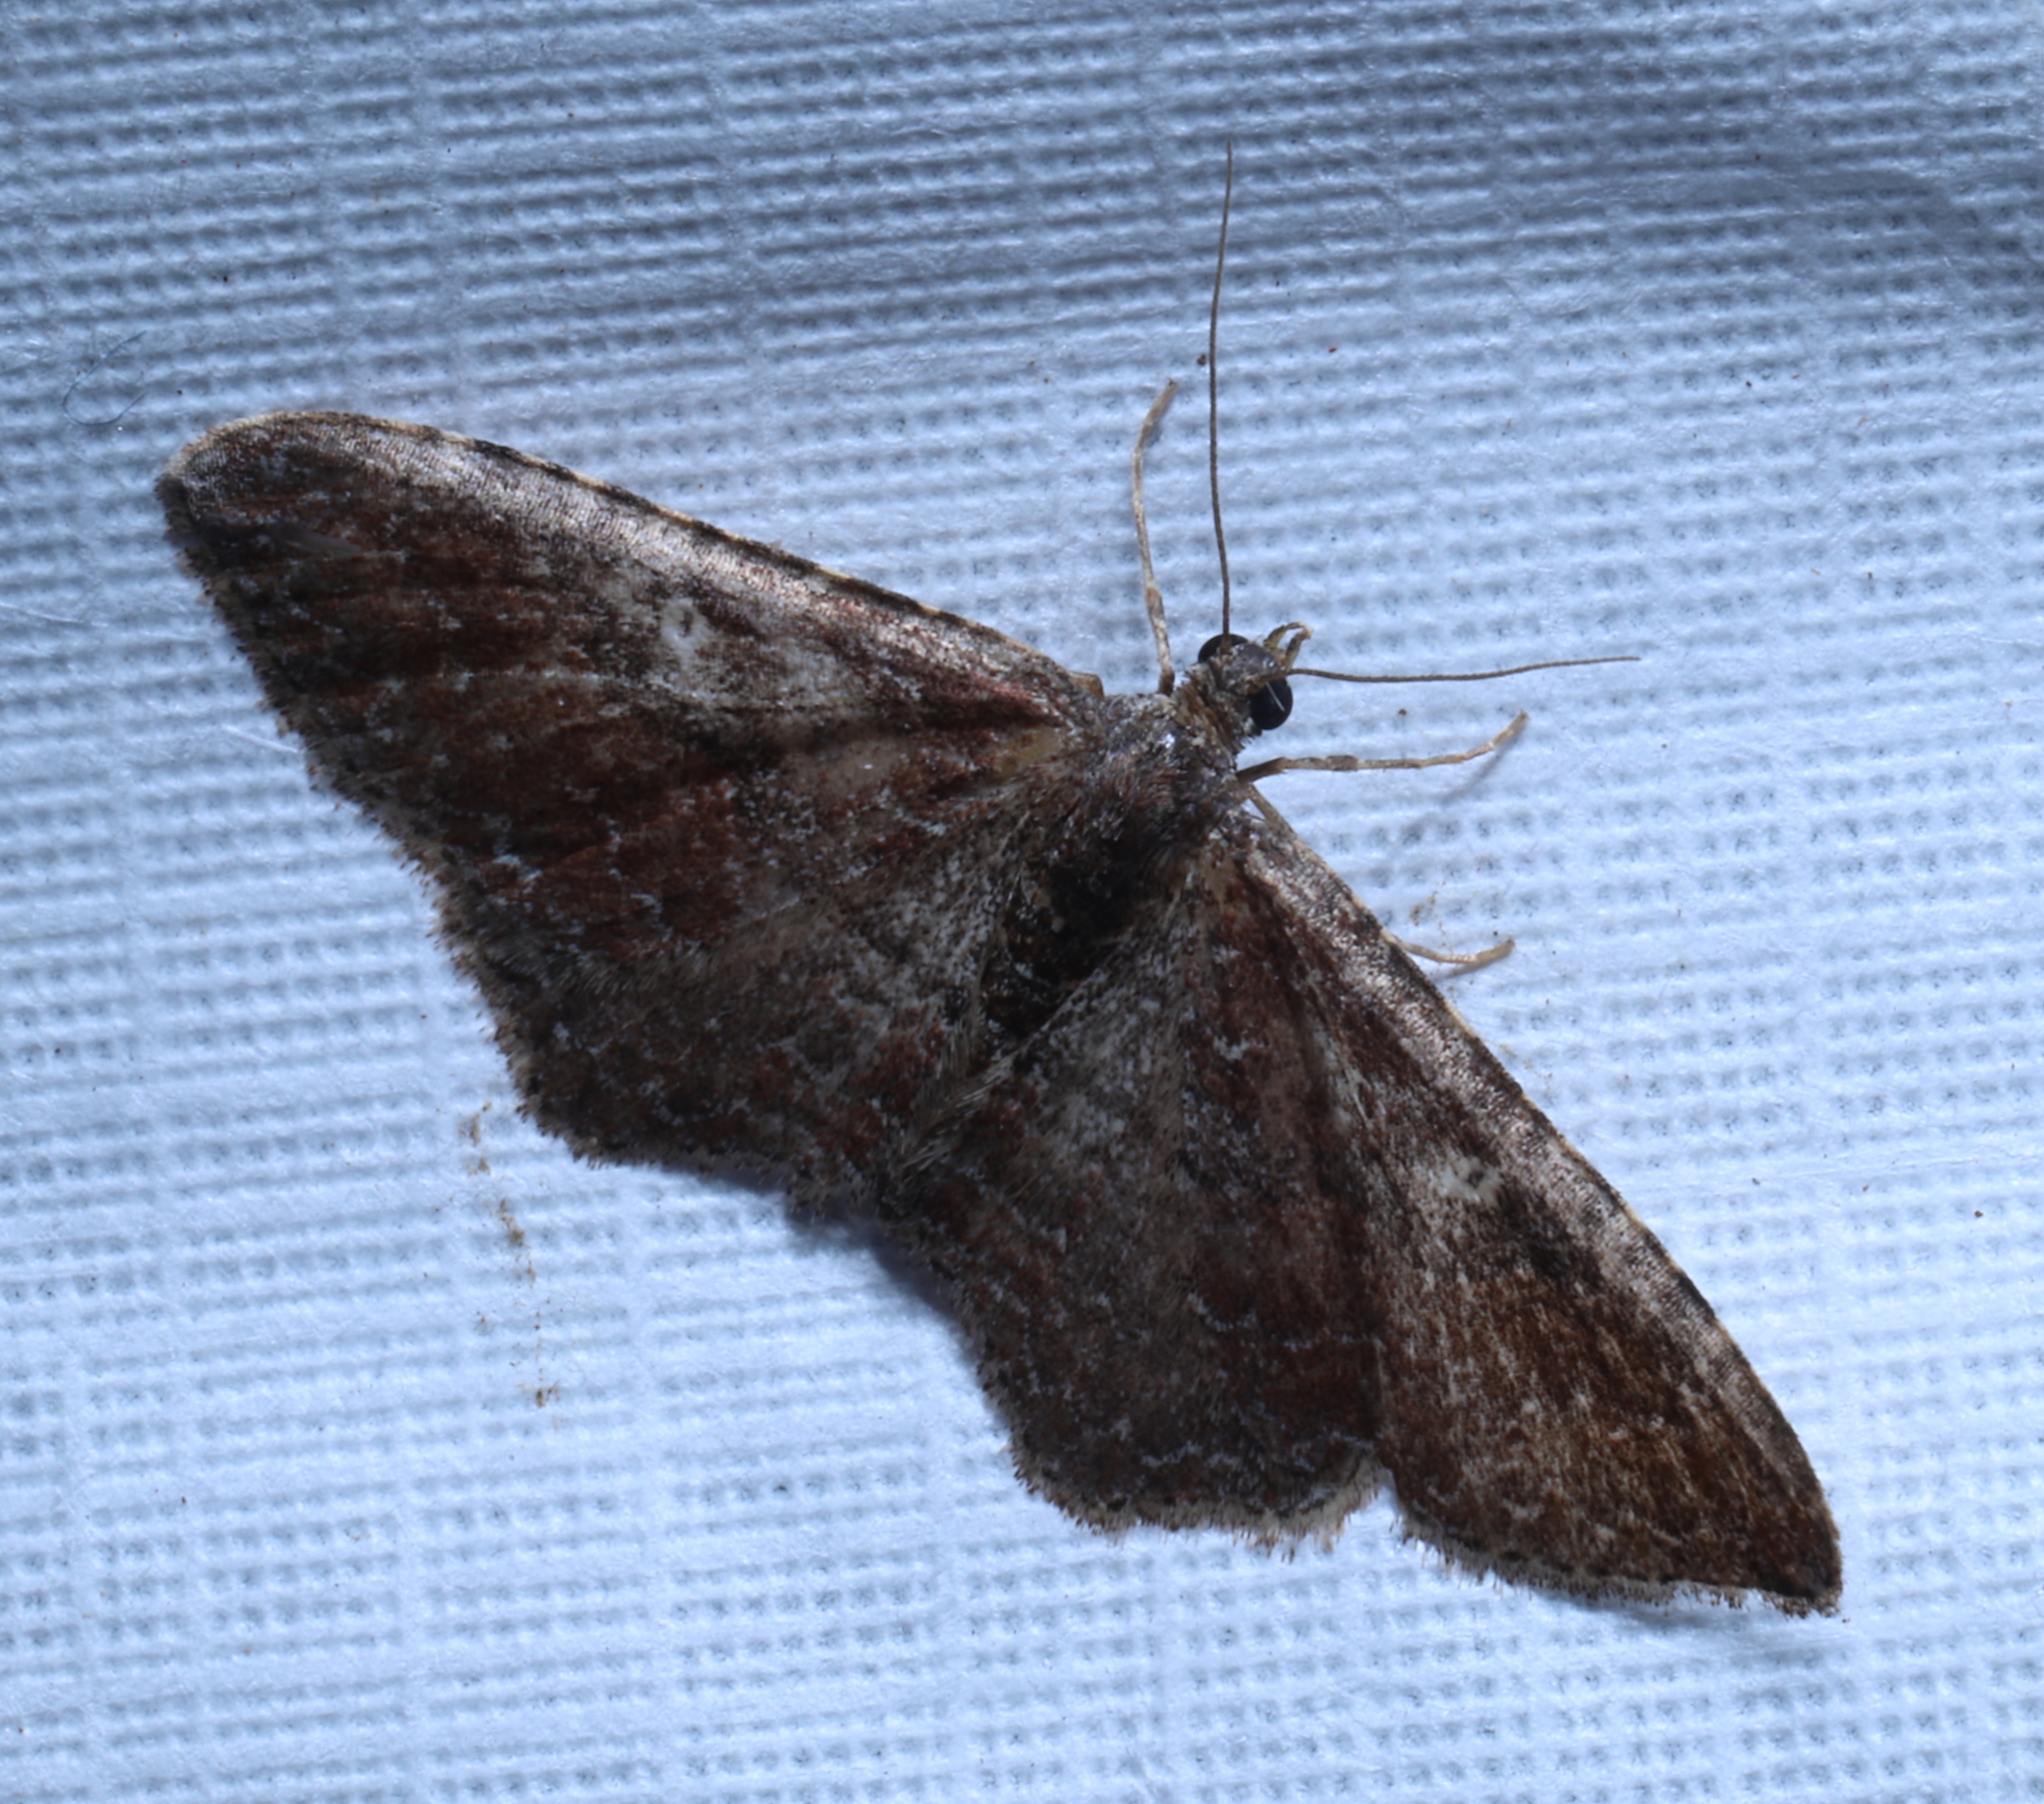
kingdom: Animalia
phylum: Arthropoda
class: Insecta
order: Lepidoptera
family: Geometridae
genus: Orthonama
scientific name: Orthonama obstipata
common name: The gem
